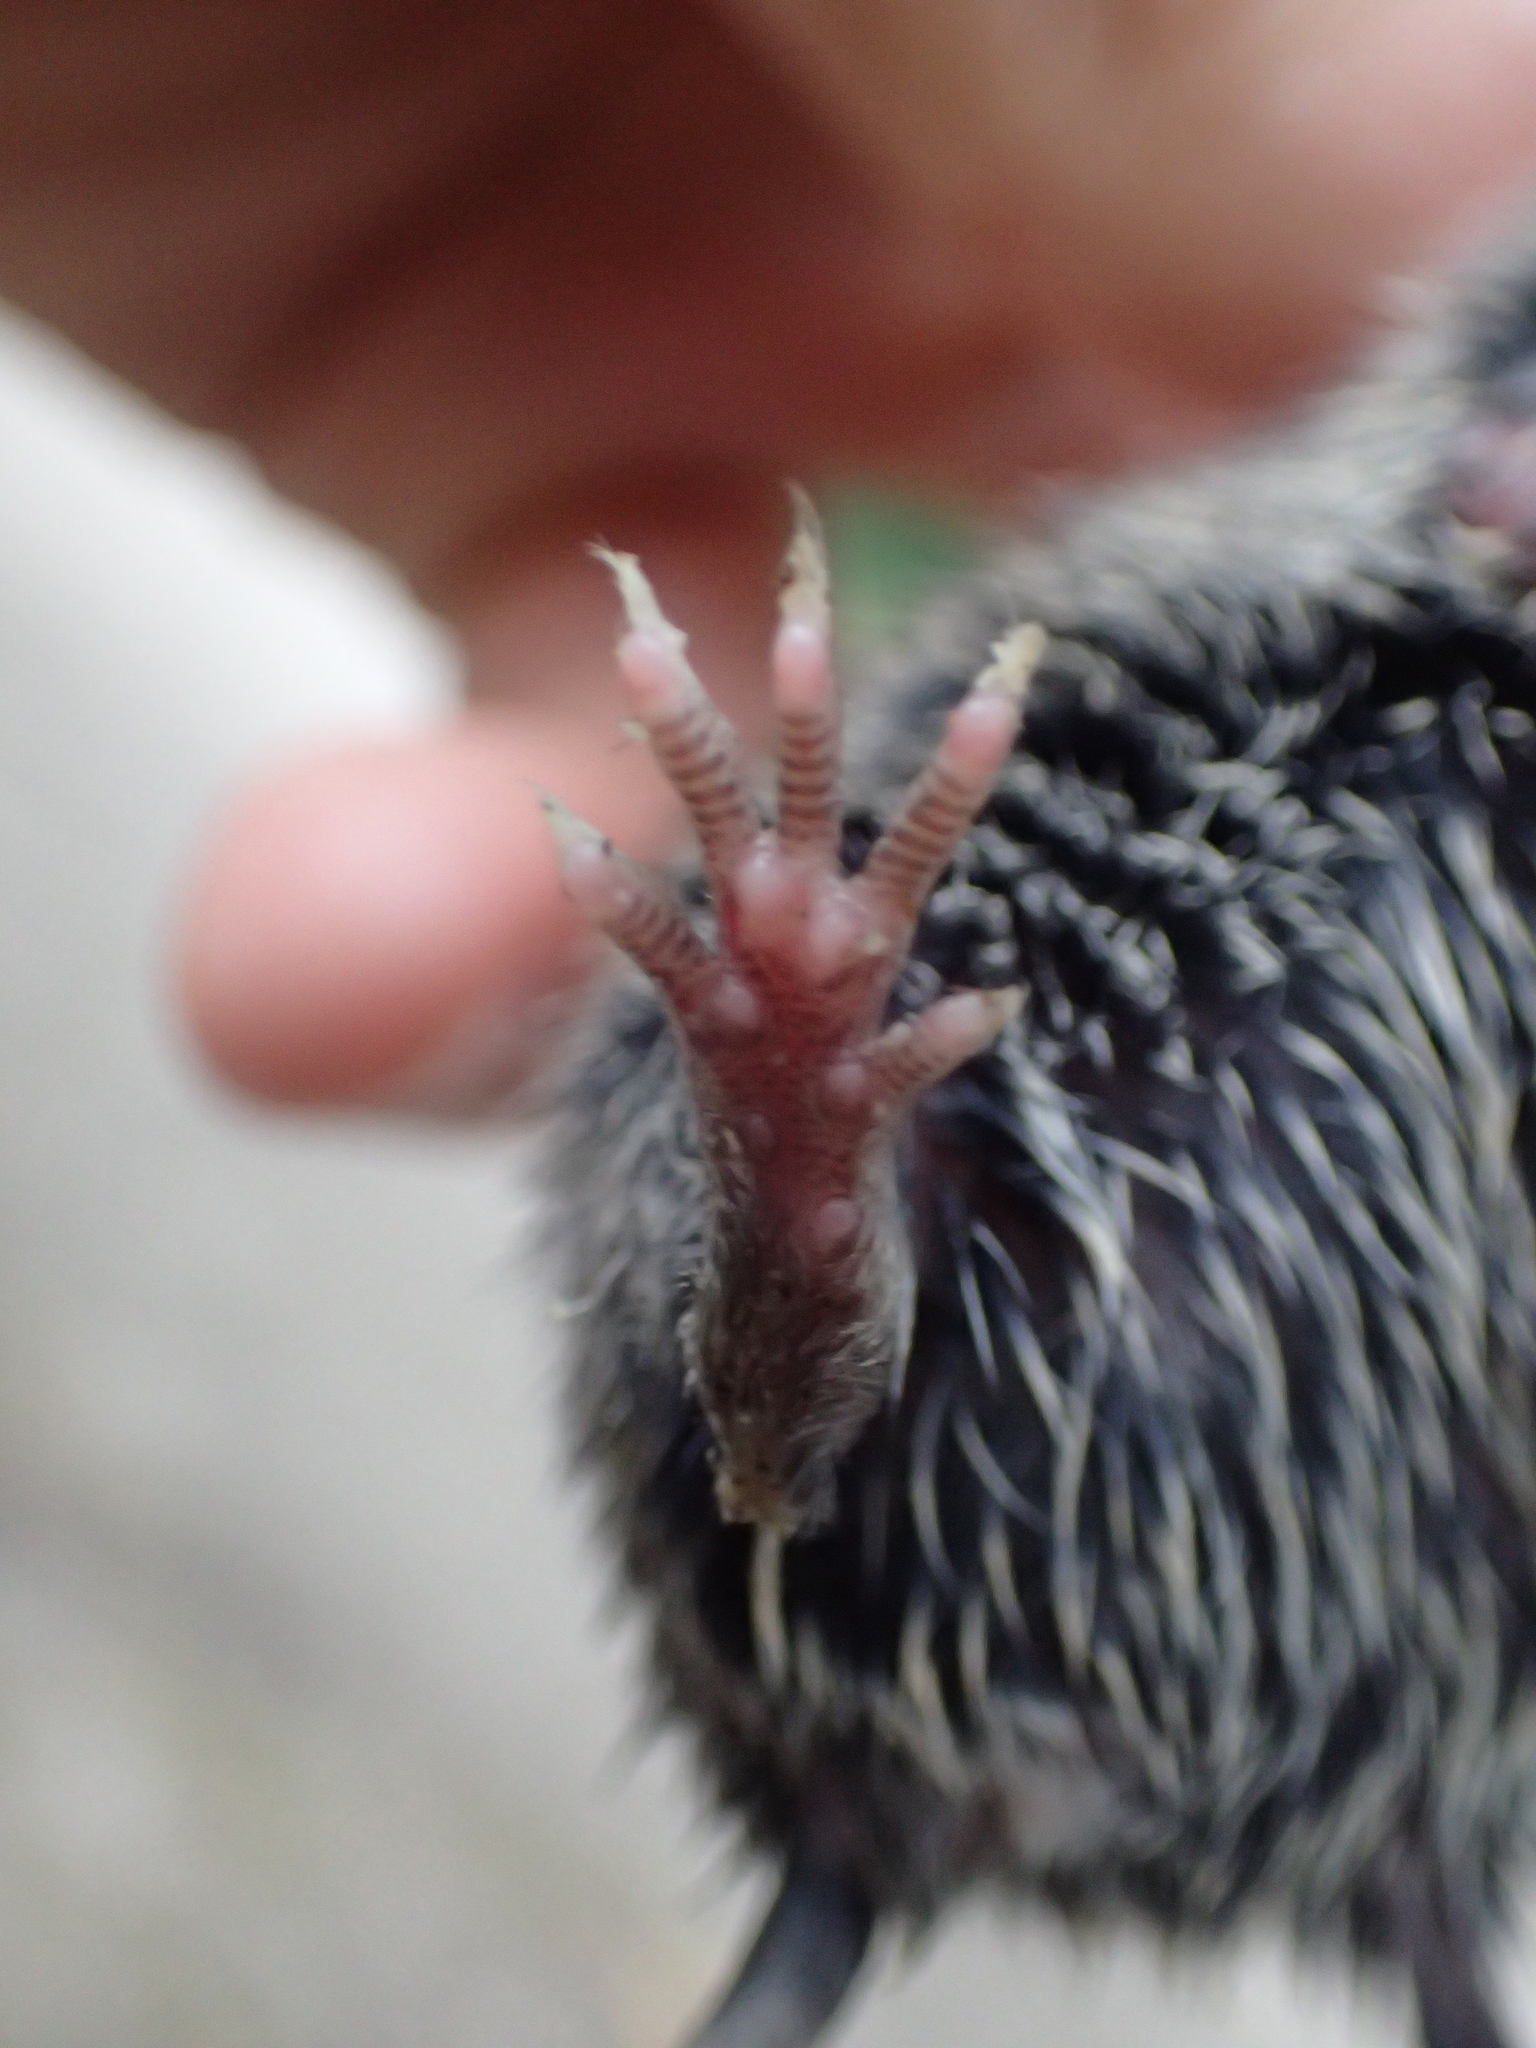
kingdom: Animalia
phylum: Chordata
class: Mammalia
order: Rodentia
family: Cricetidae
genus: Myodes
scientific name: Myodes glareolus
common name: Bank vole
